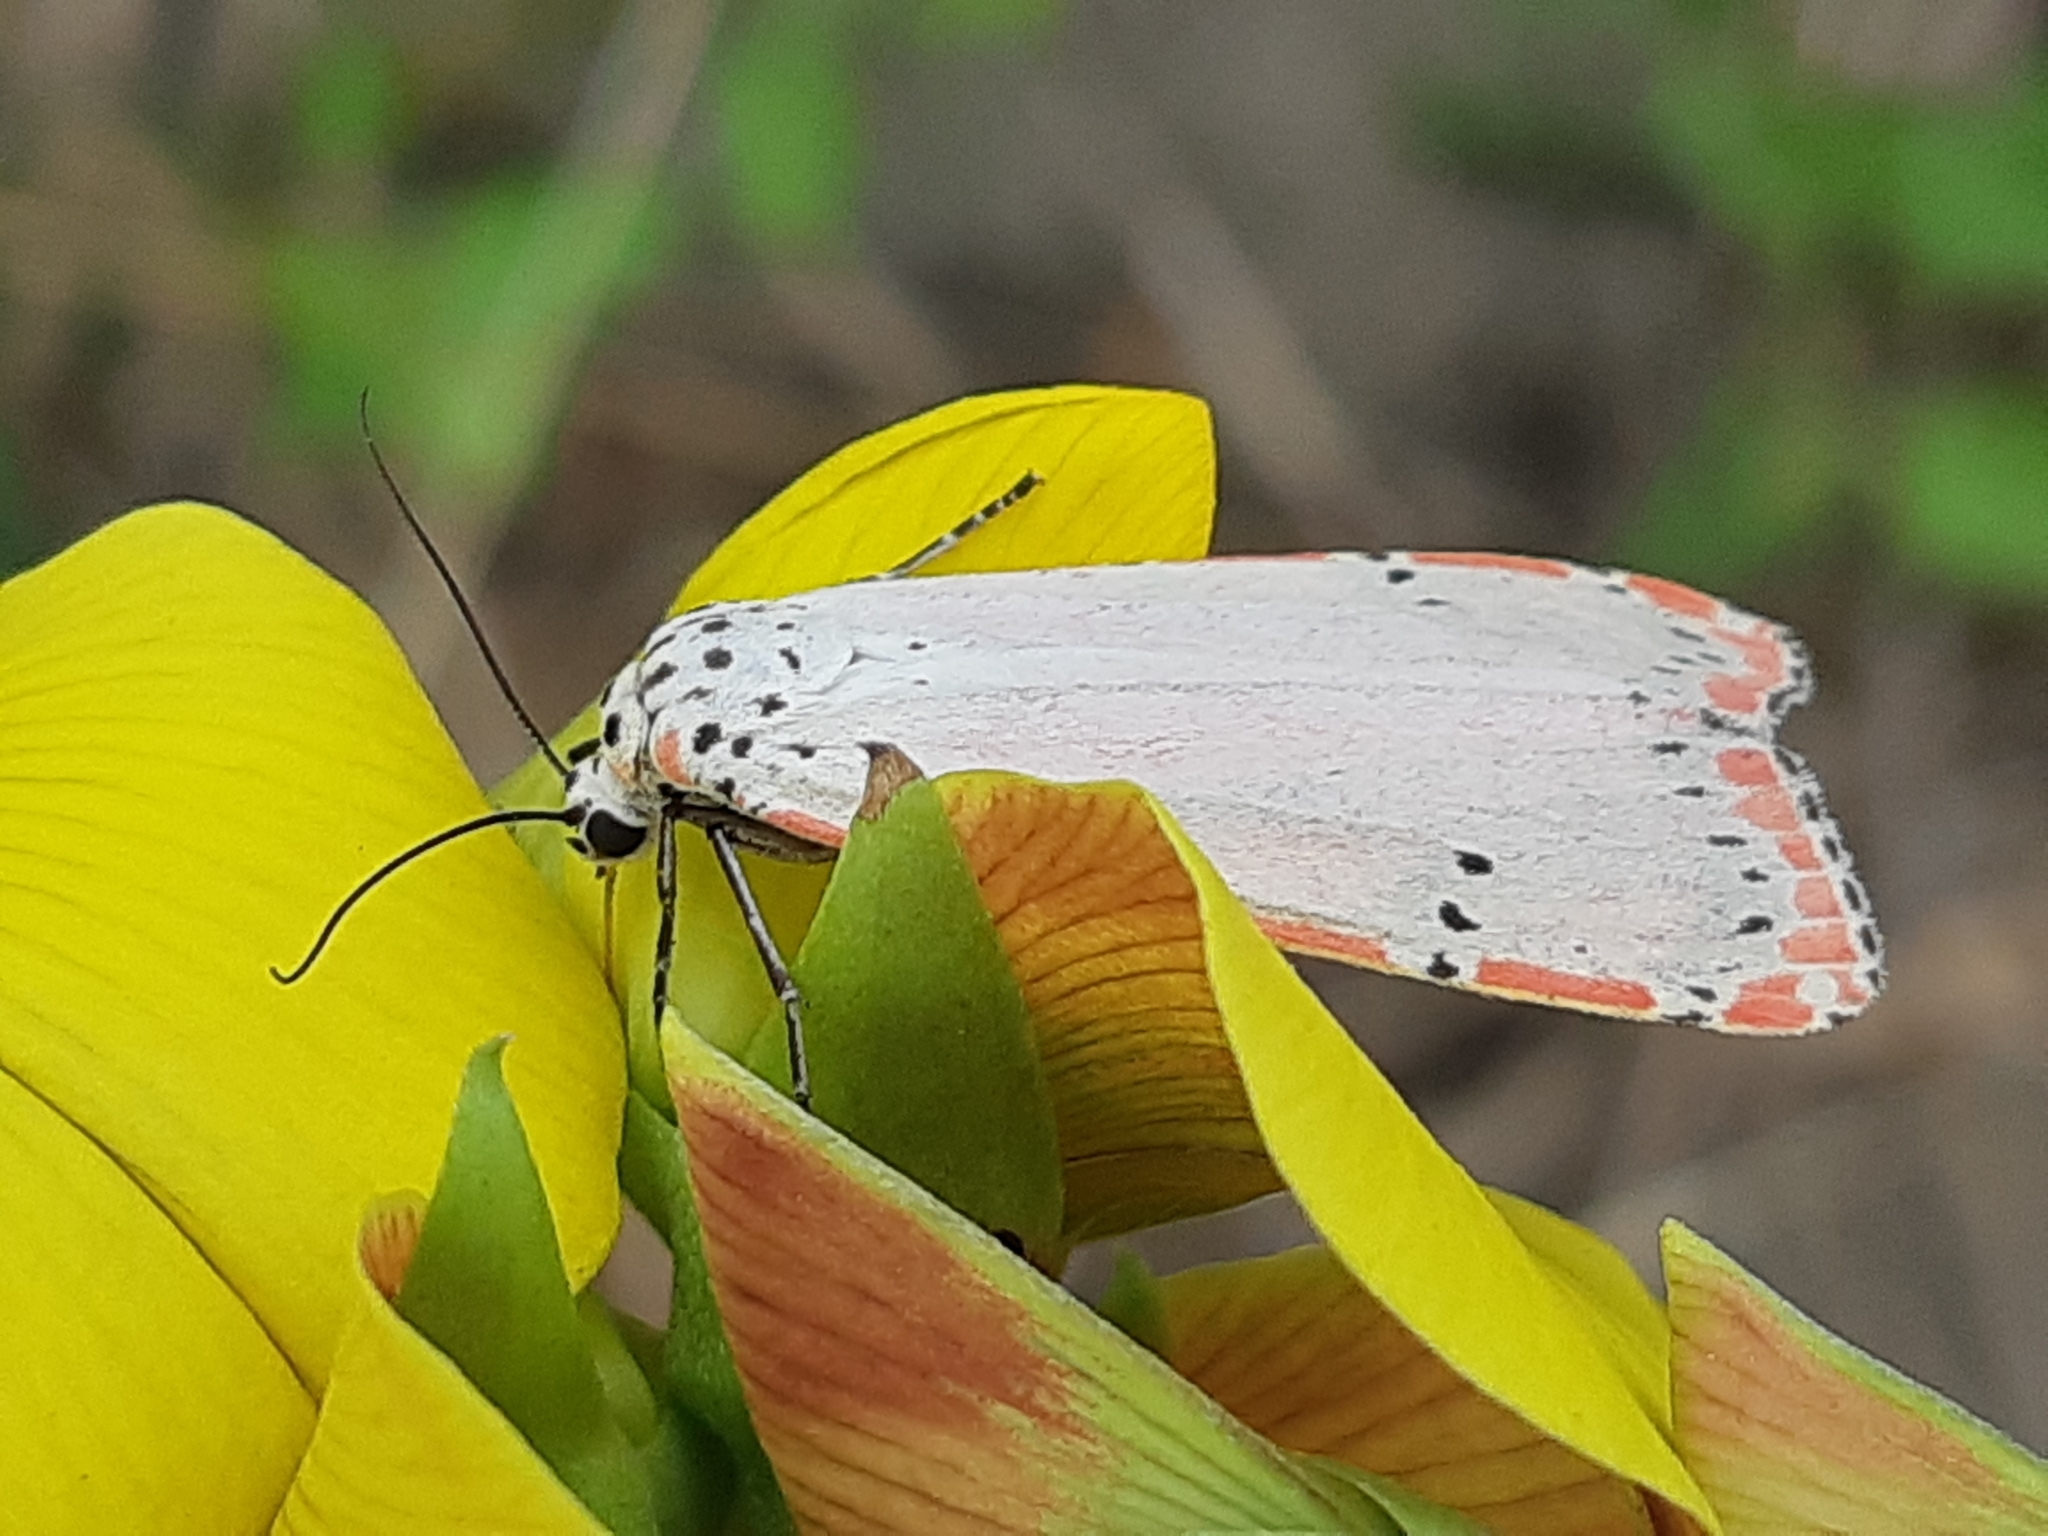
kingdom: Animalia
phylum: Arthropoda
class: Insecta
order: Lepidoptera
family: Erebidae
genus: Utetheisa
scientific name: Utetheisa ornatrix
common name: Beautiful utetheisa
